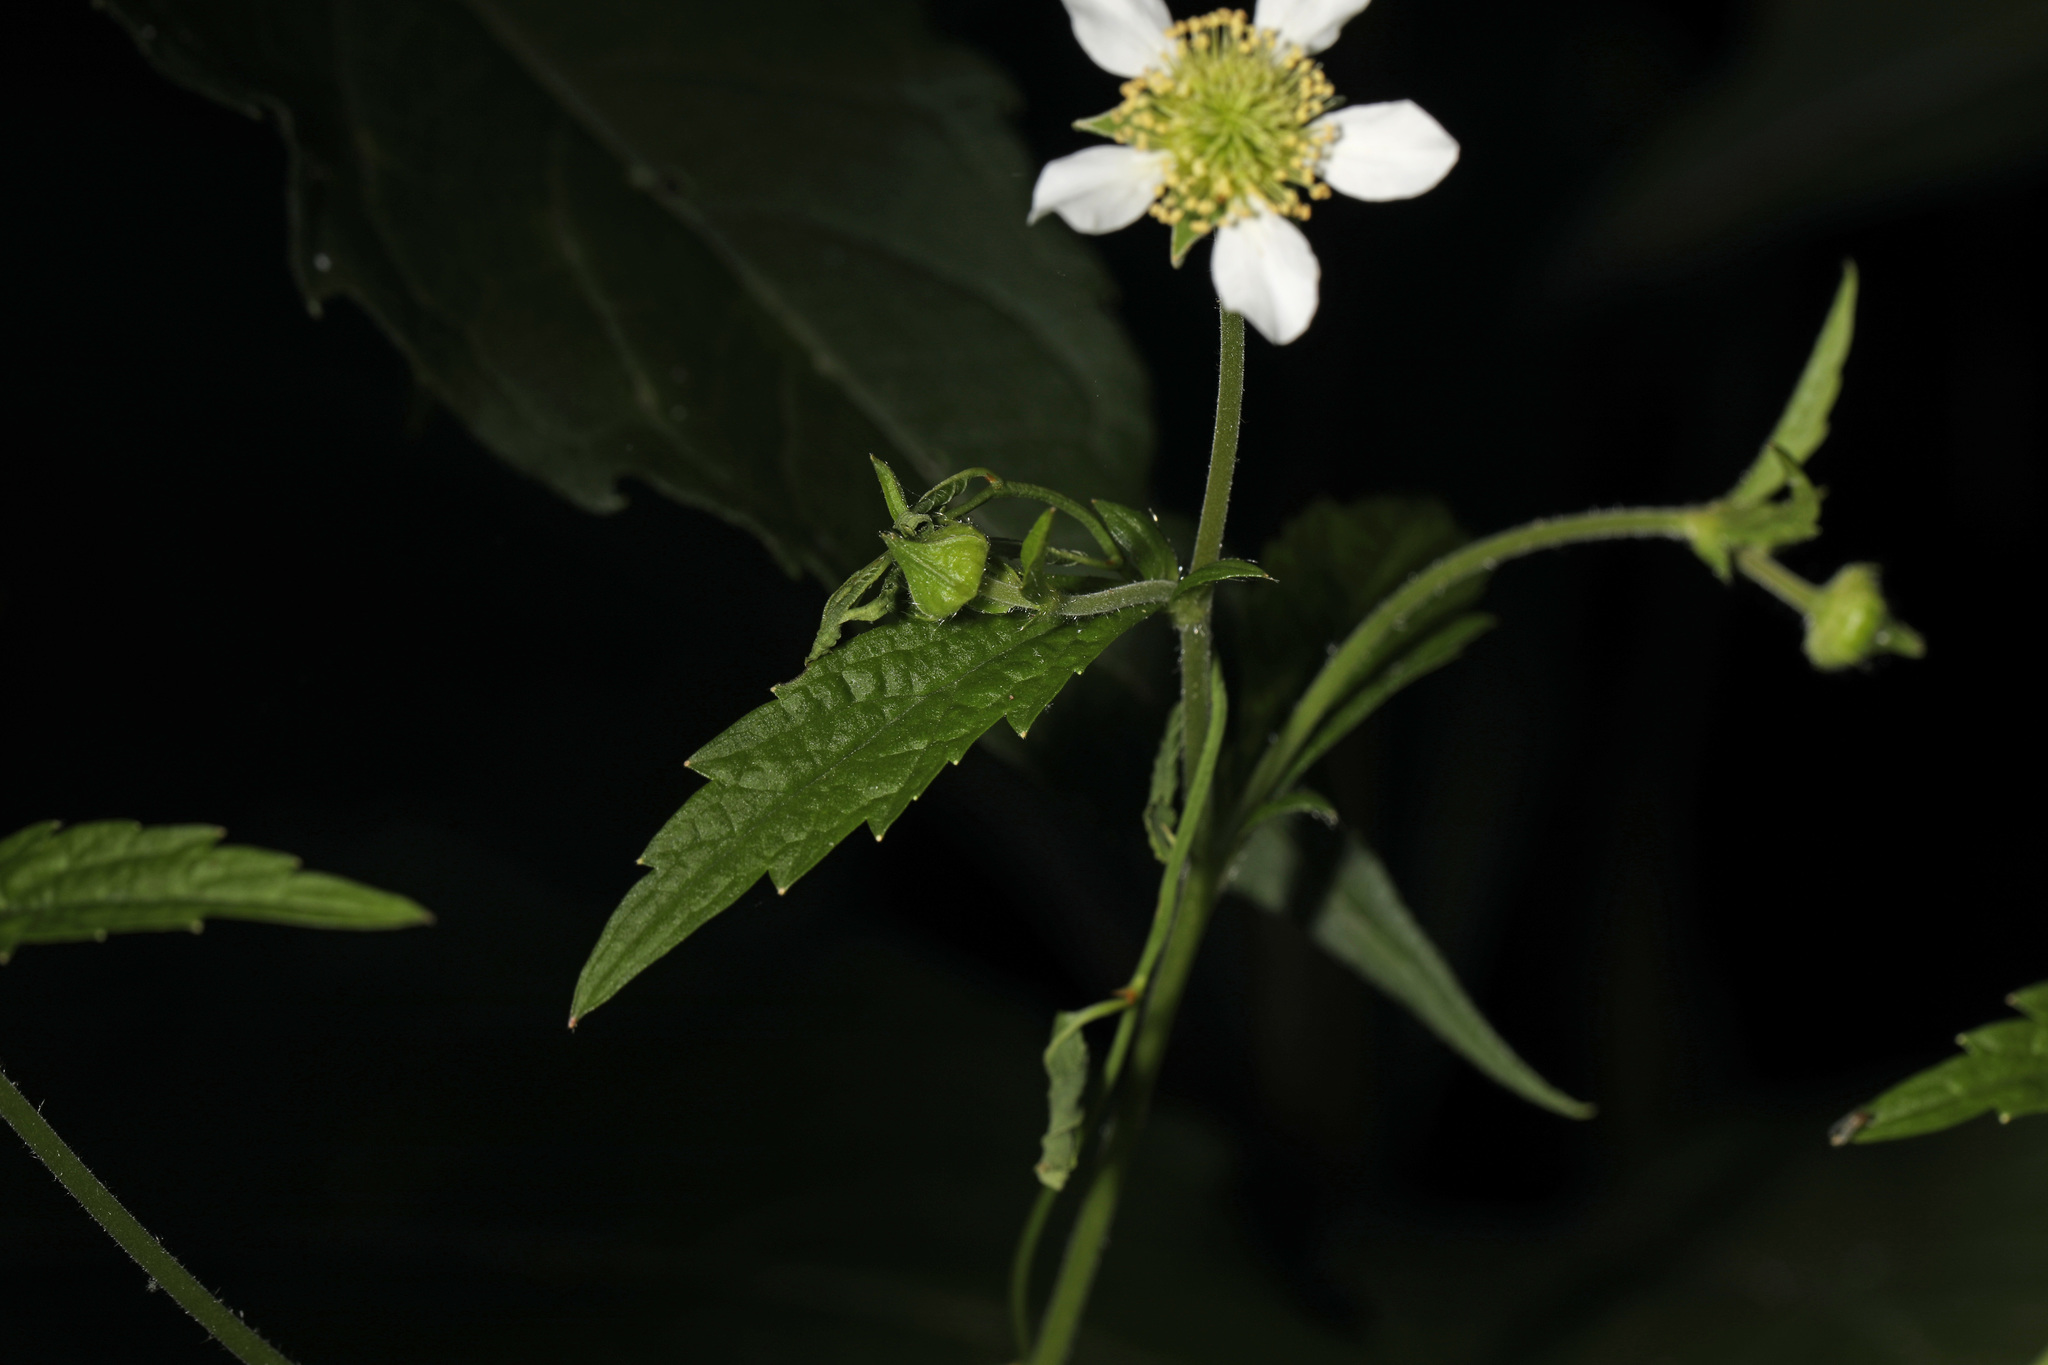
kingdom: Plantae
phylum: Tracheophyta
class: Magnoliopsida
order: Rosales
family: Rosaceae
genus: Geum
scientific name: Geum canadense
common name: White avens
